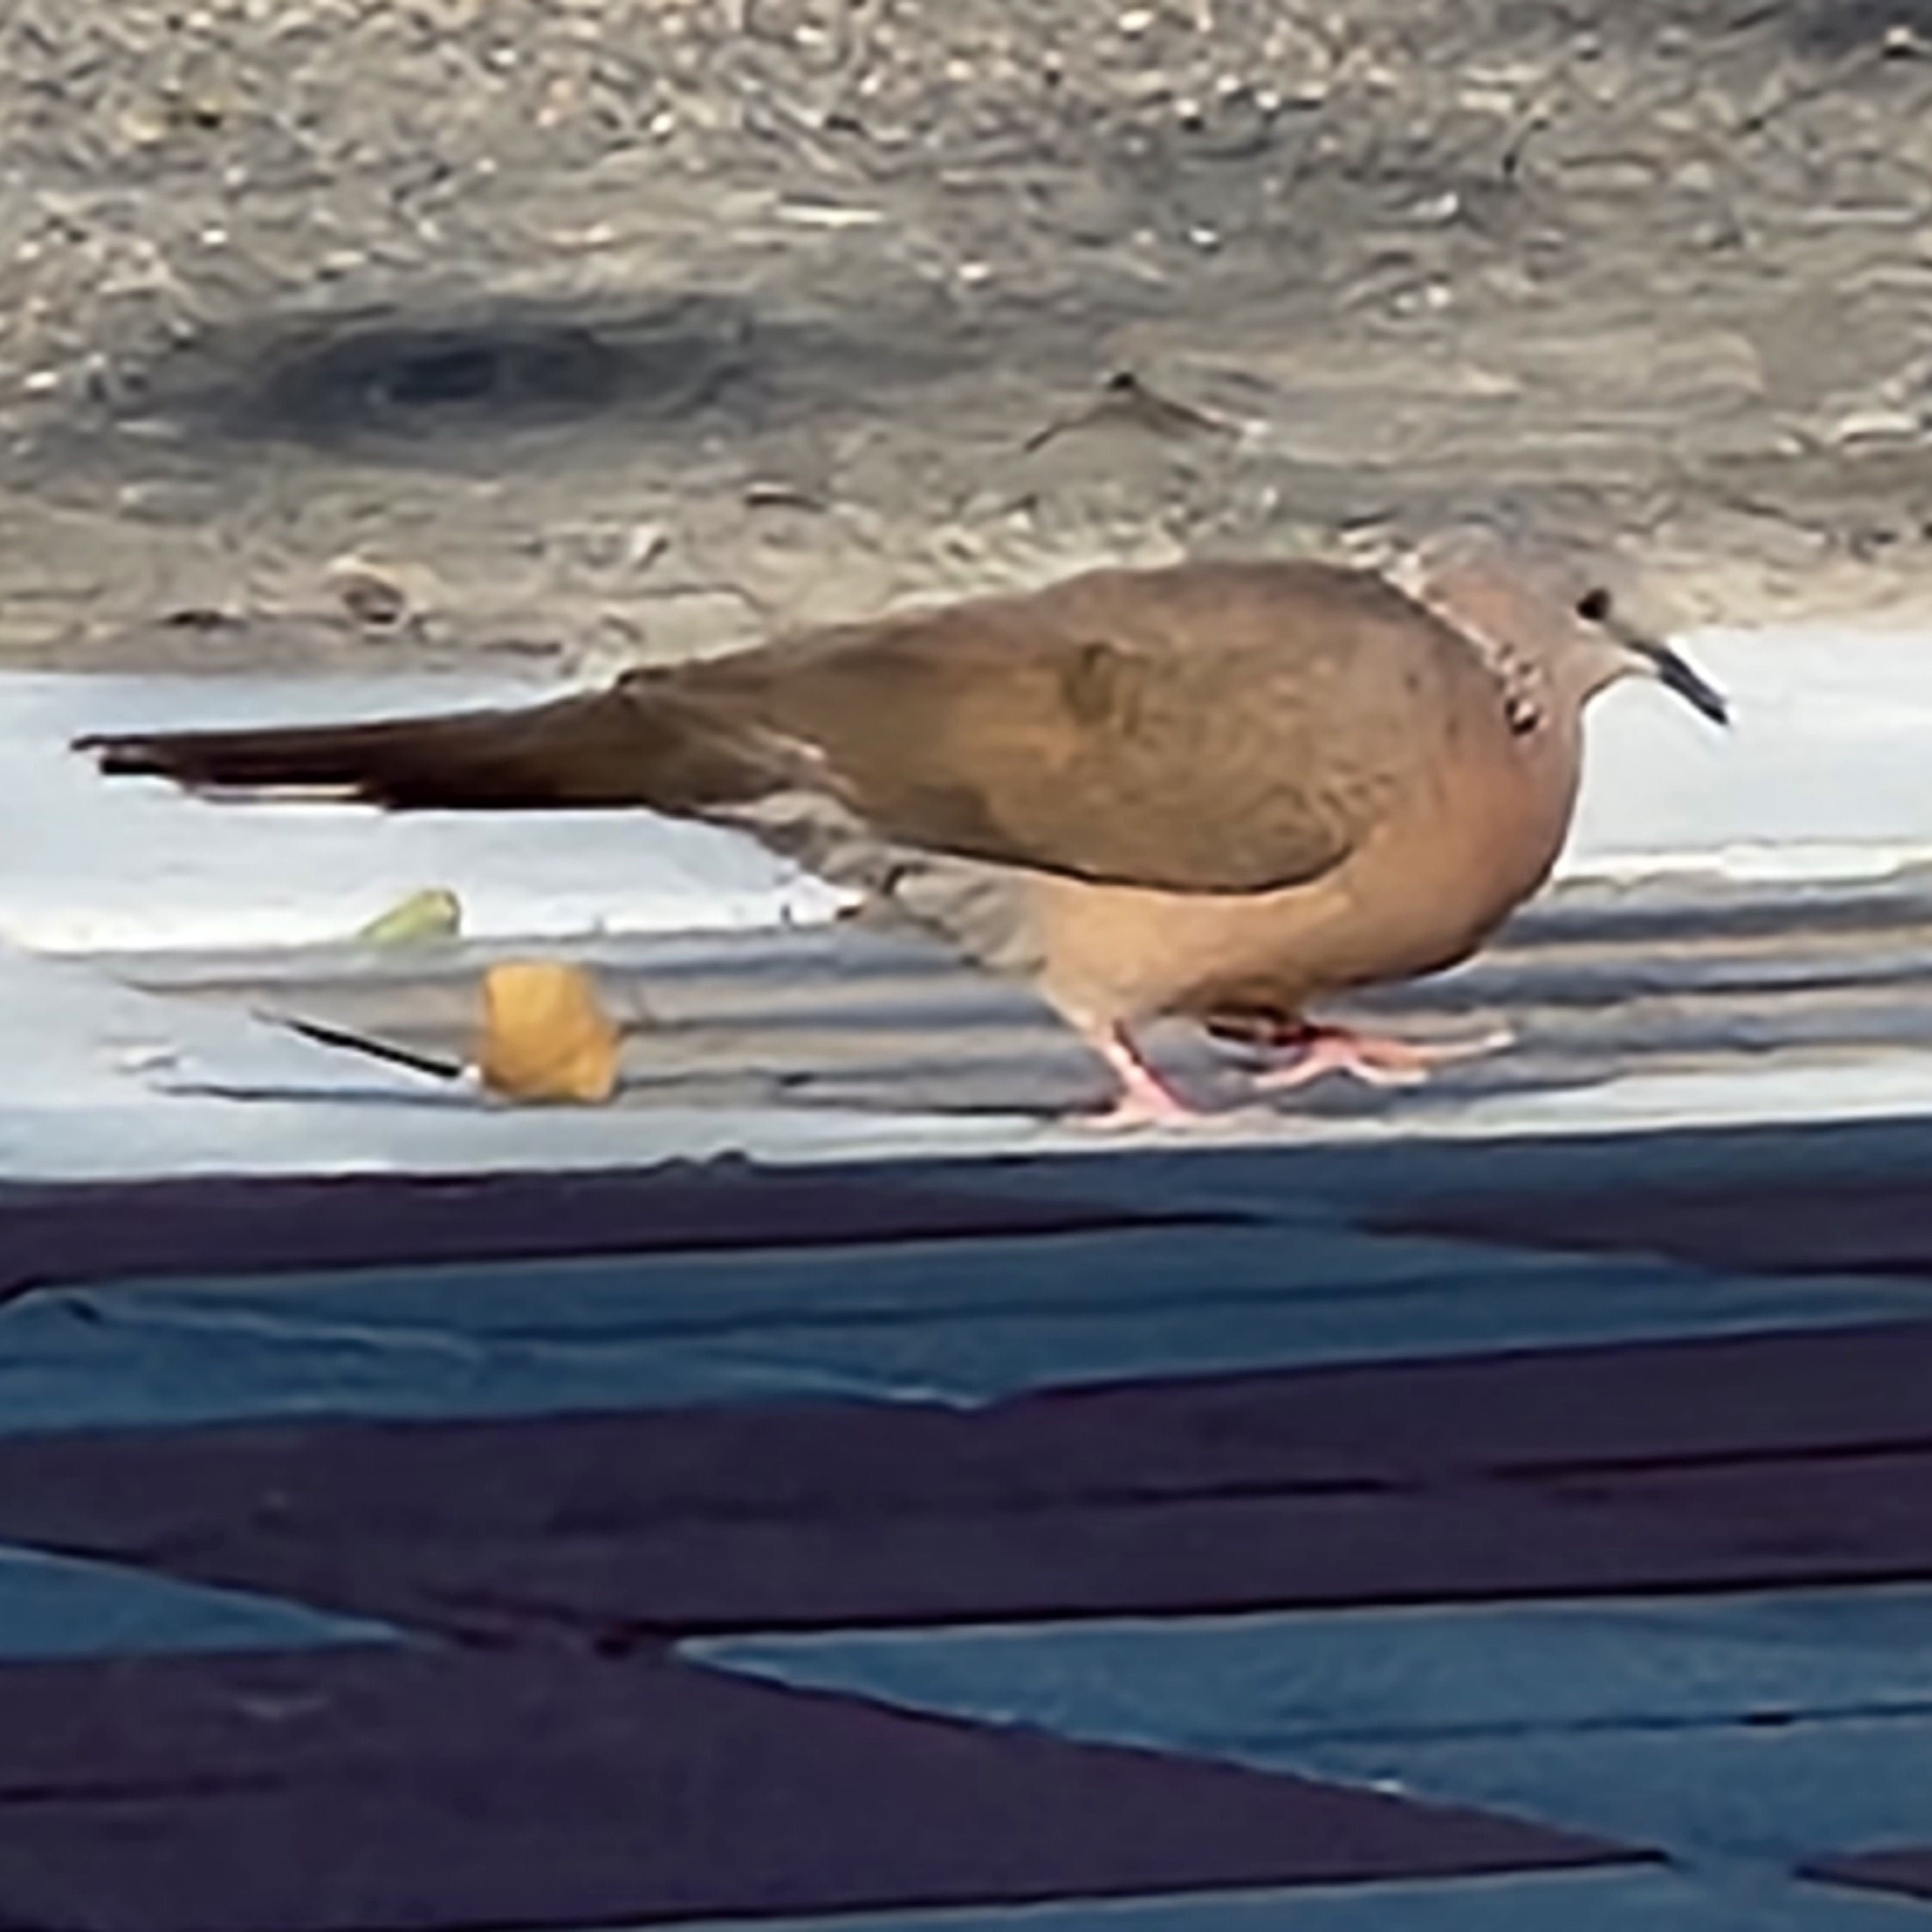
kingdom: Animalia
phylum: Chordata
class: Aves
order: Columbiformes
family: Columbidae
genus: Spilopelia
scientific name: Spilopelia chinensis
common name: Spotted dove
